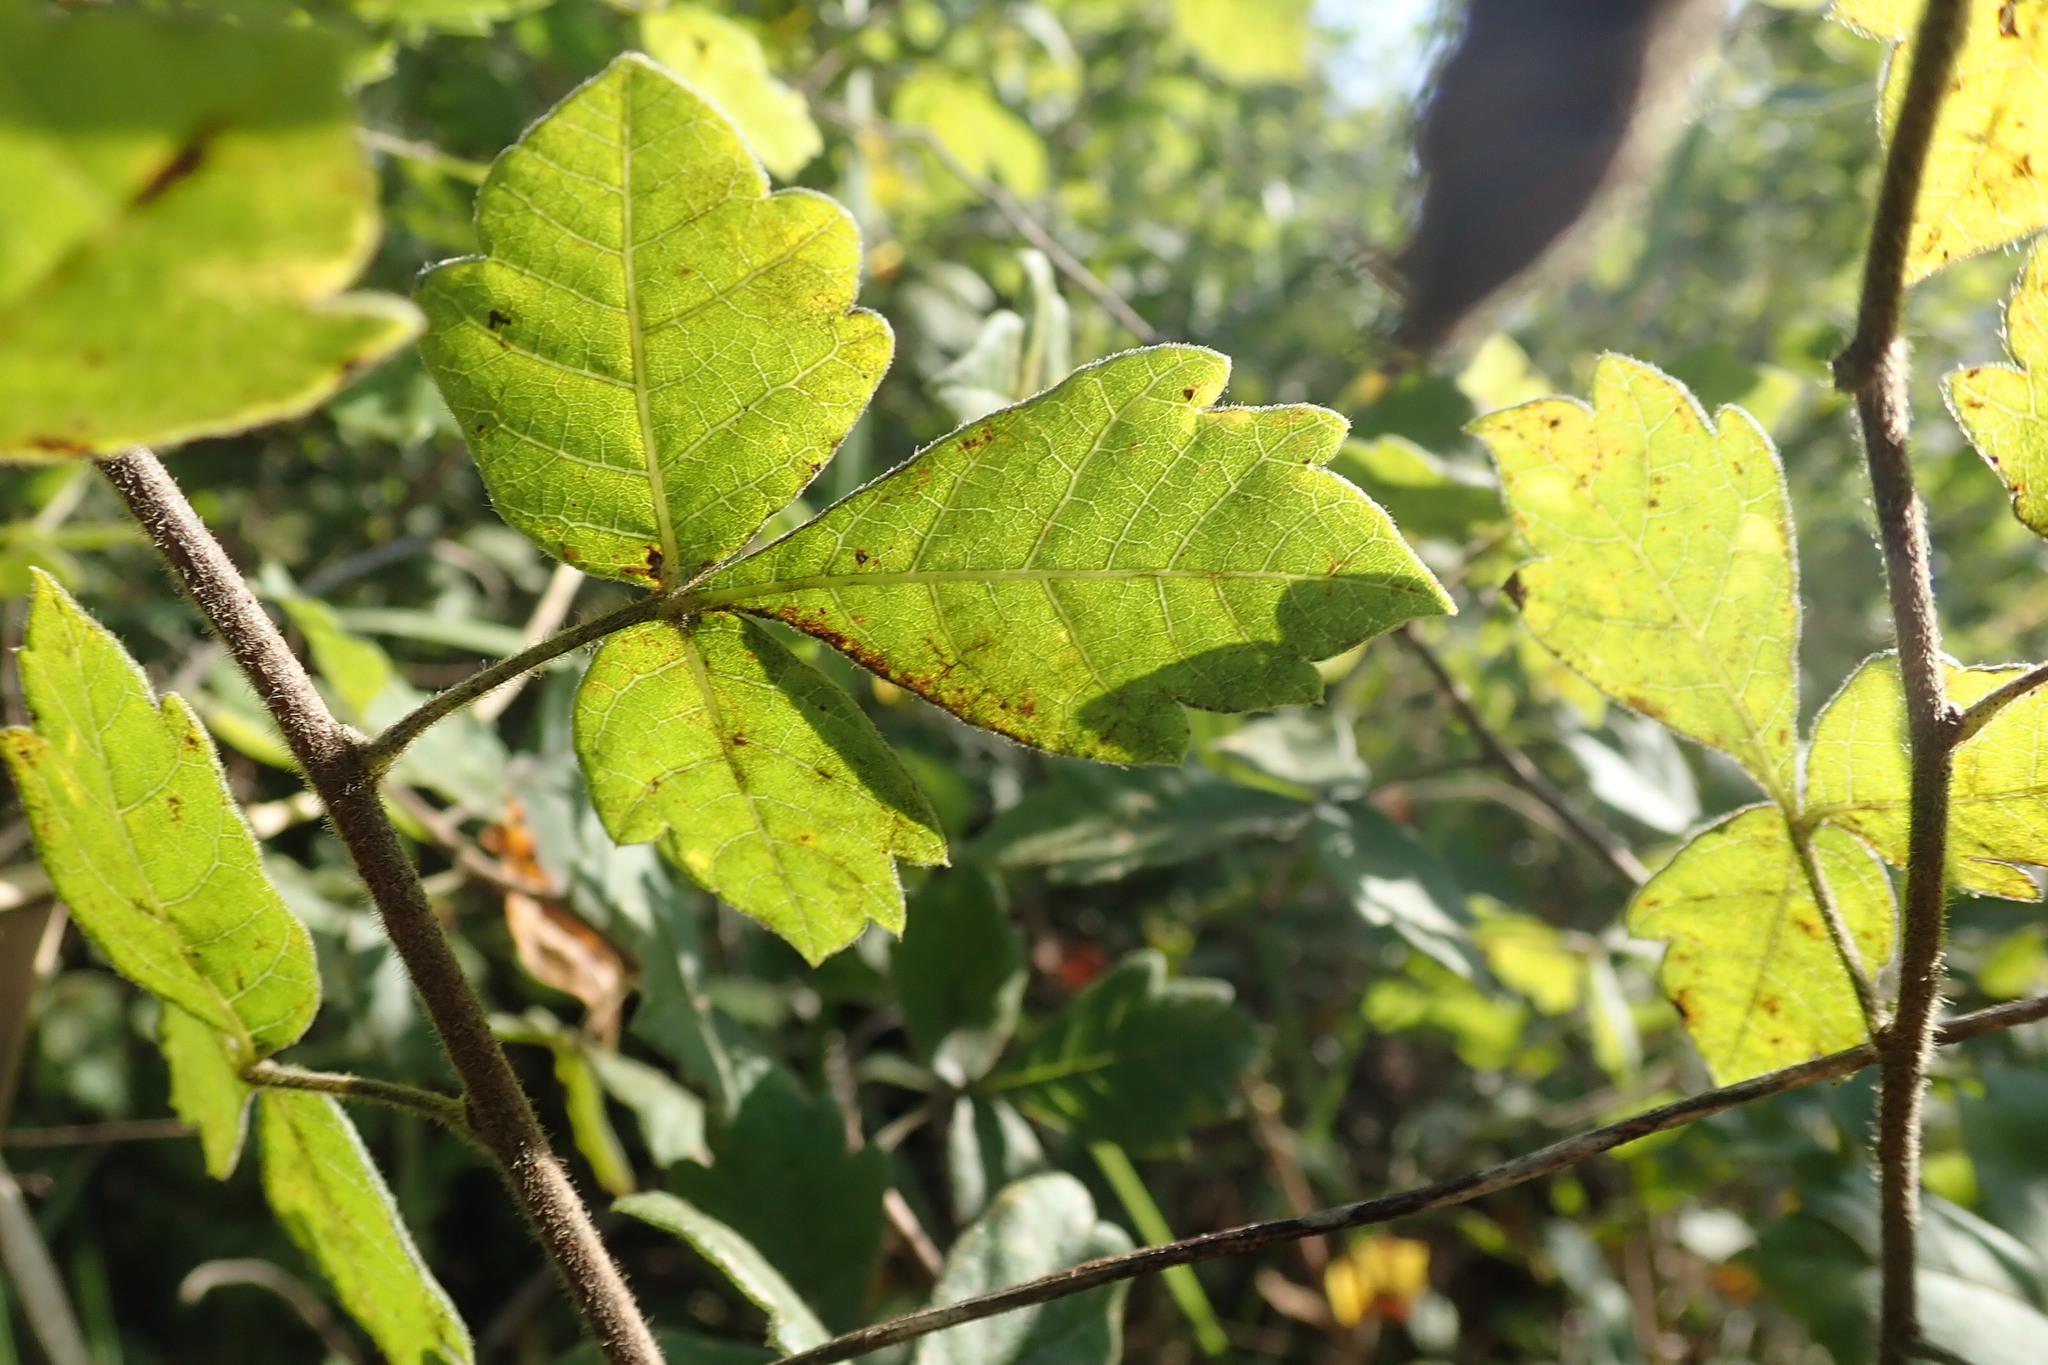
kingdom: Plantae
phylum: Tracheophyta
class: Magnoliopsida
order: Sapindales
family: Anacardiaceae
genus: Searsia
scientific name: Searsia dentata
